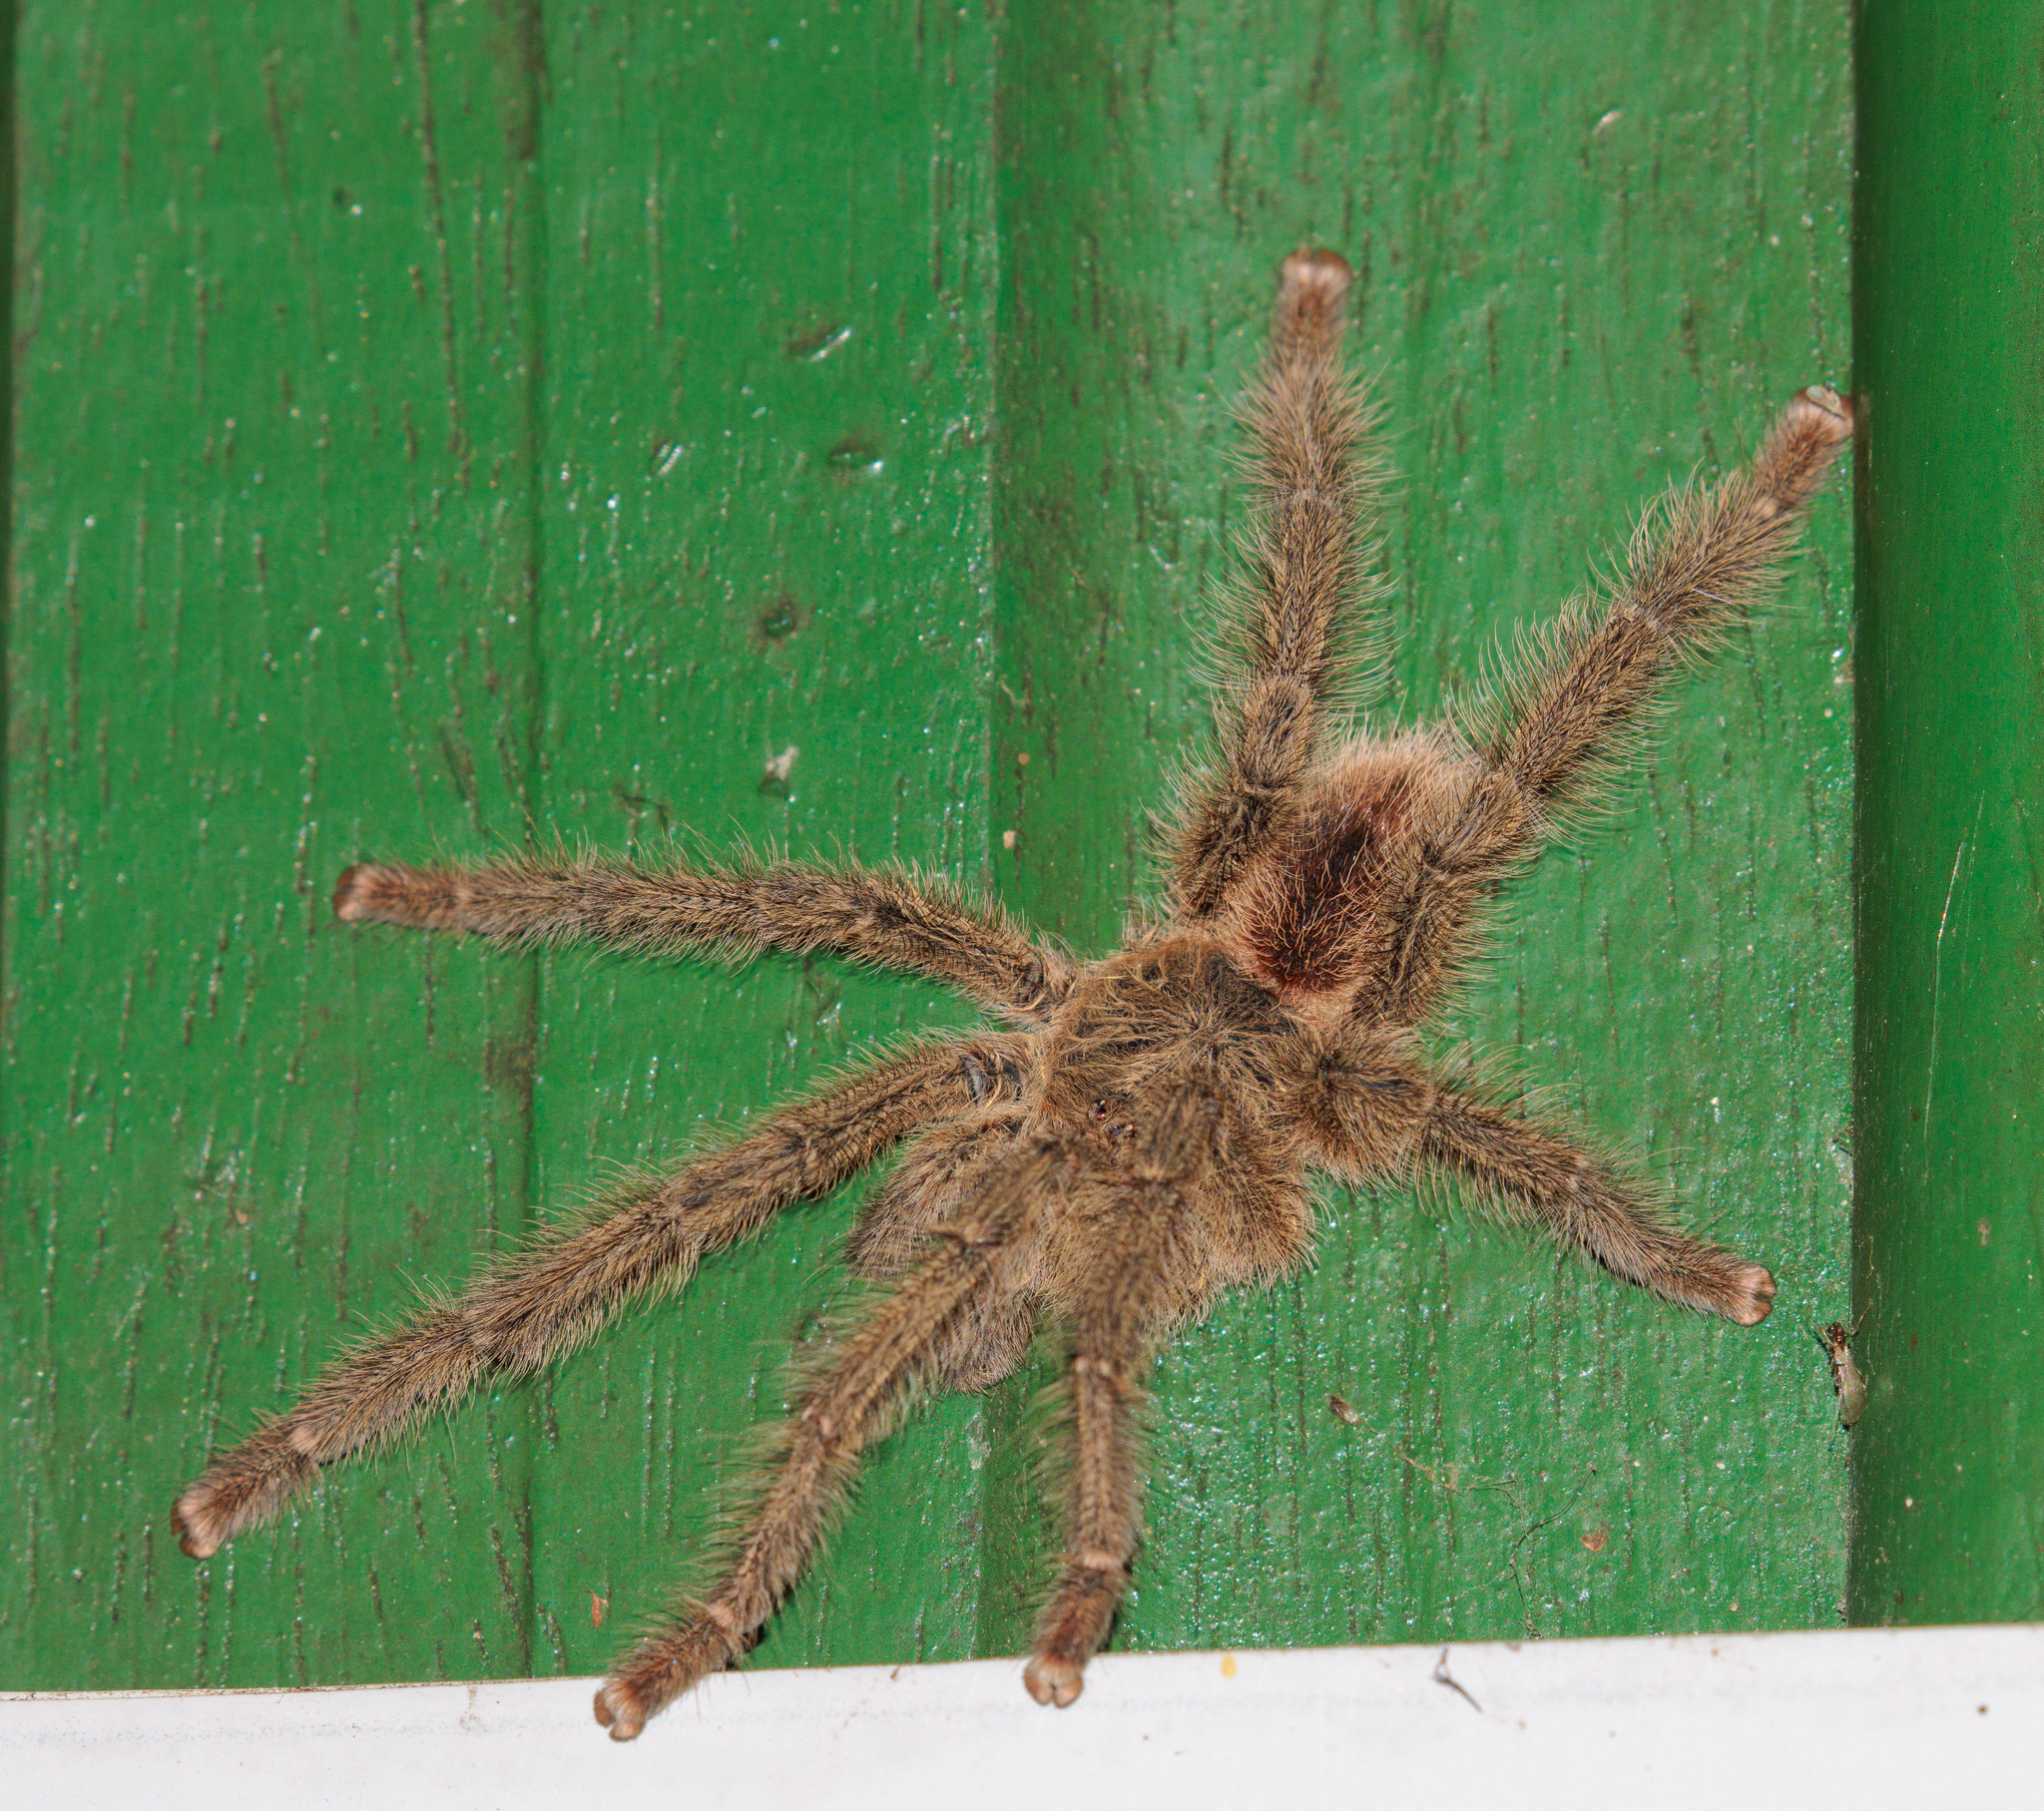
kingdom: Animalia
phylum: Arthropoda
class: Arachnida
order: Araneae
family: Theraphosidae
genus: Iridopelma
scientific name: Iridopelma hirsutum
